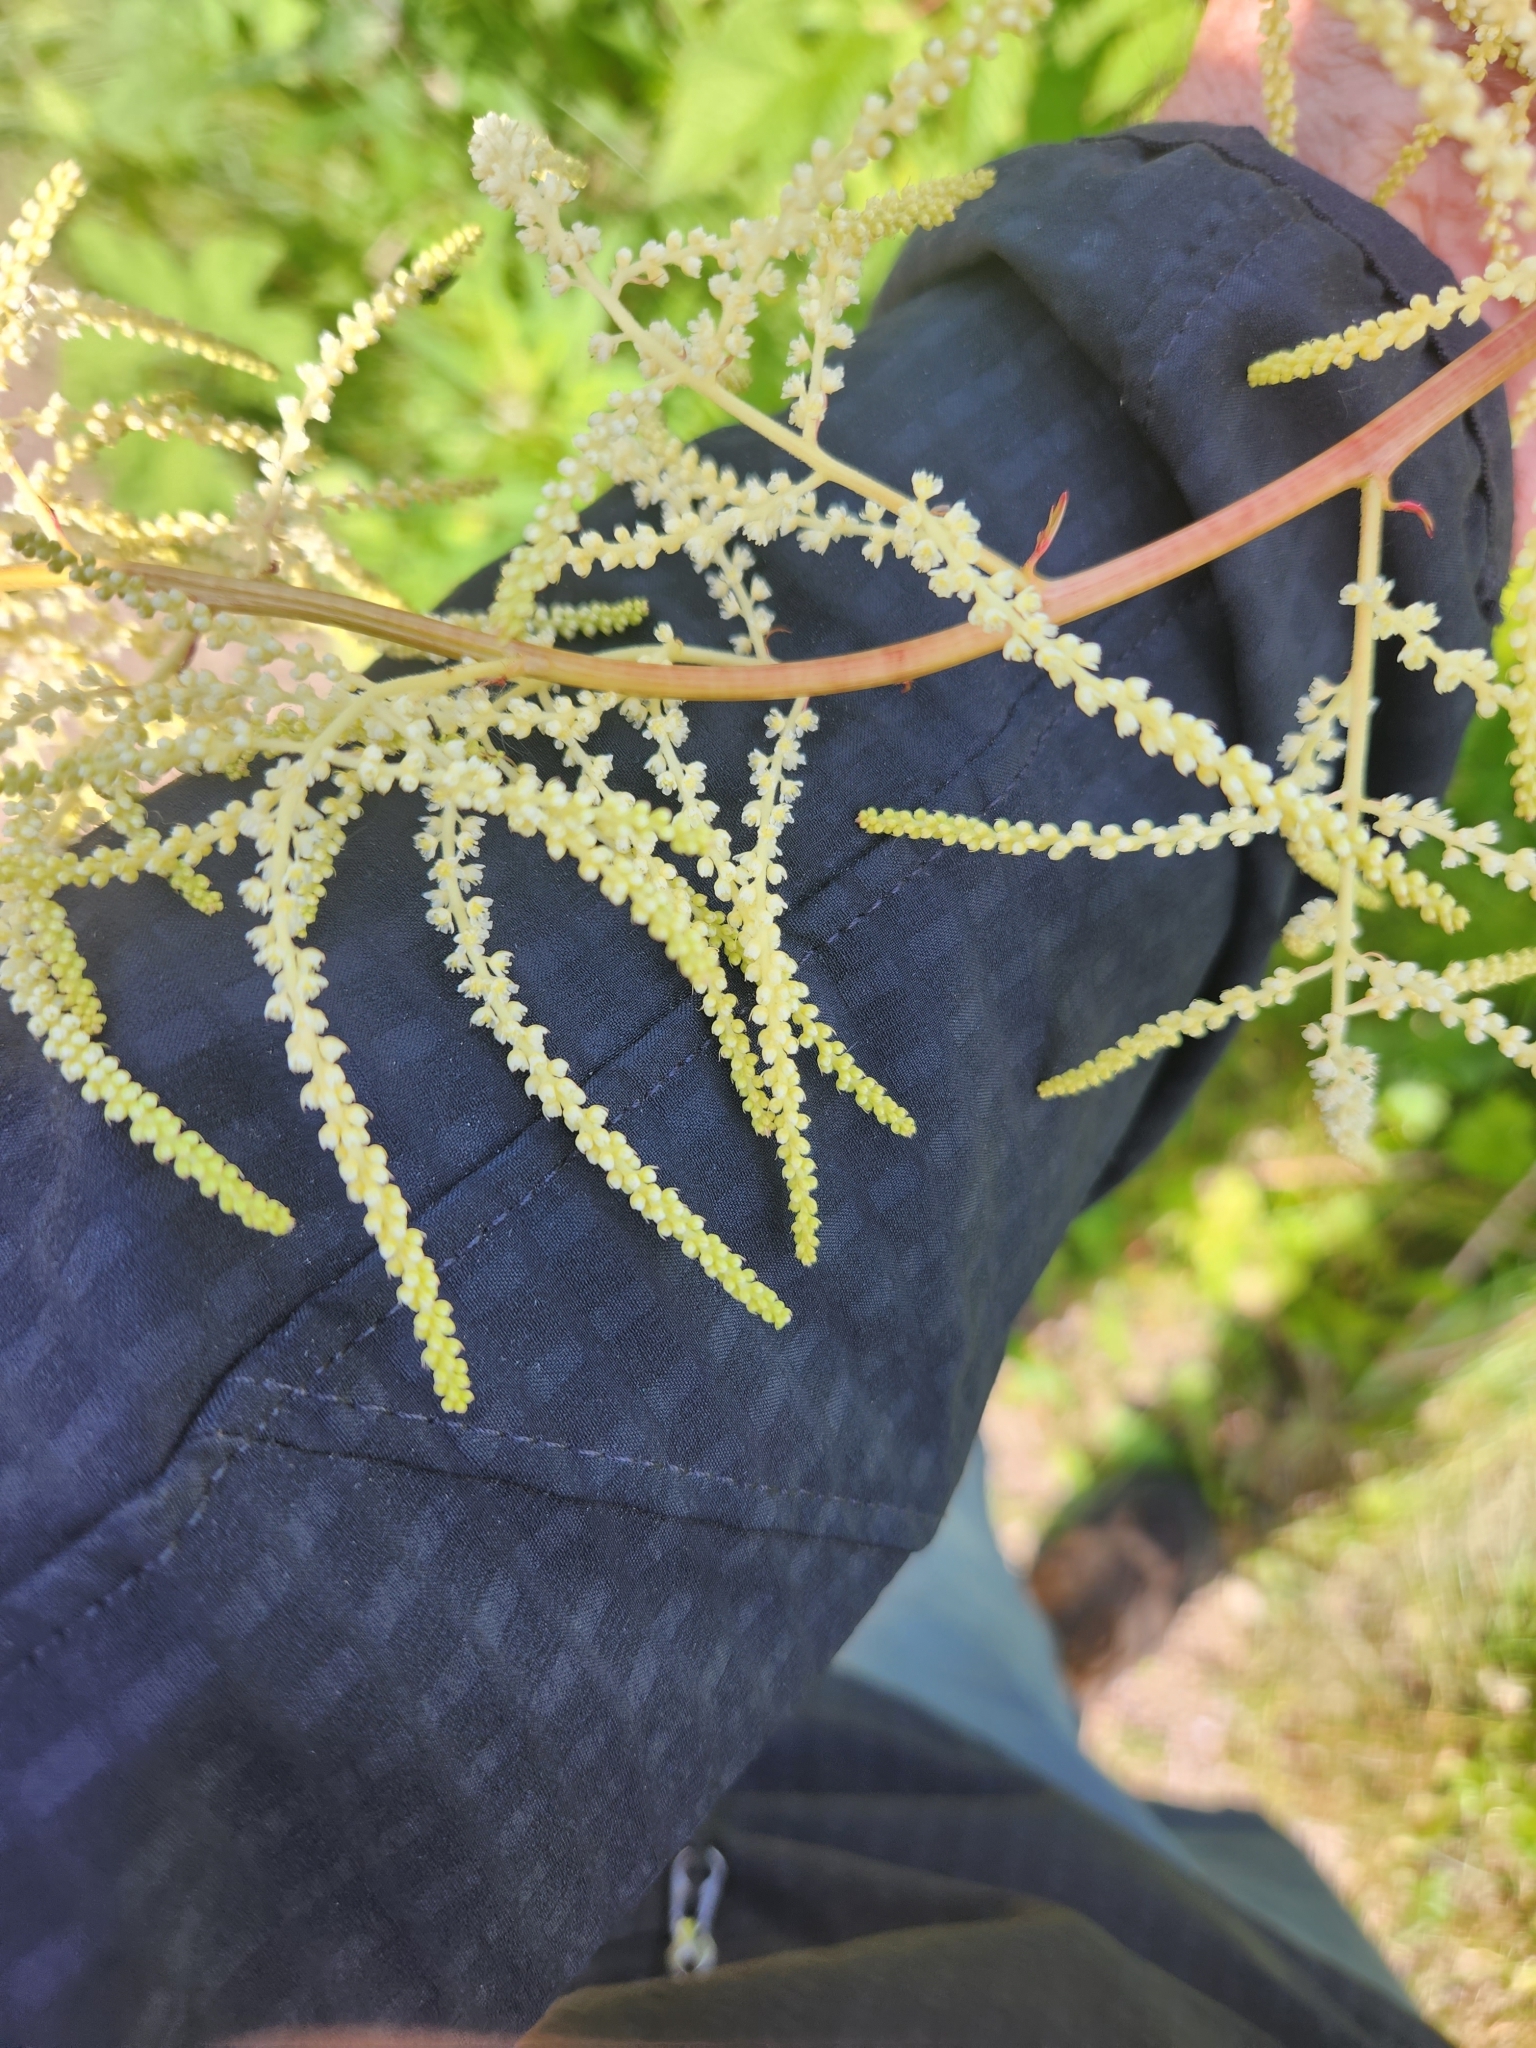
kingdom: Plantae
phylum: Tracheophyta
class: Magnoliopsida
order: Rosales
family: Rosaceae
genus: Aruncus
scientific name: Aruncus dioicus
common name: Buck's-beard
